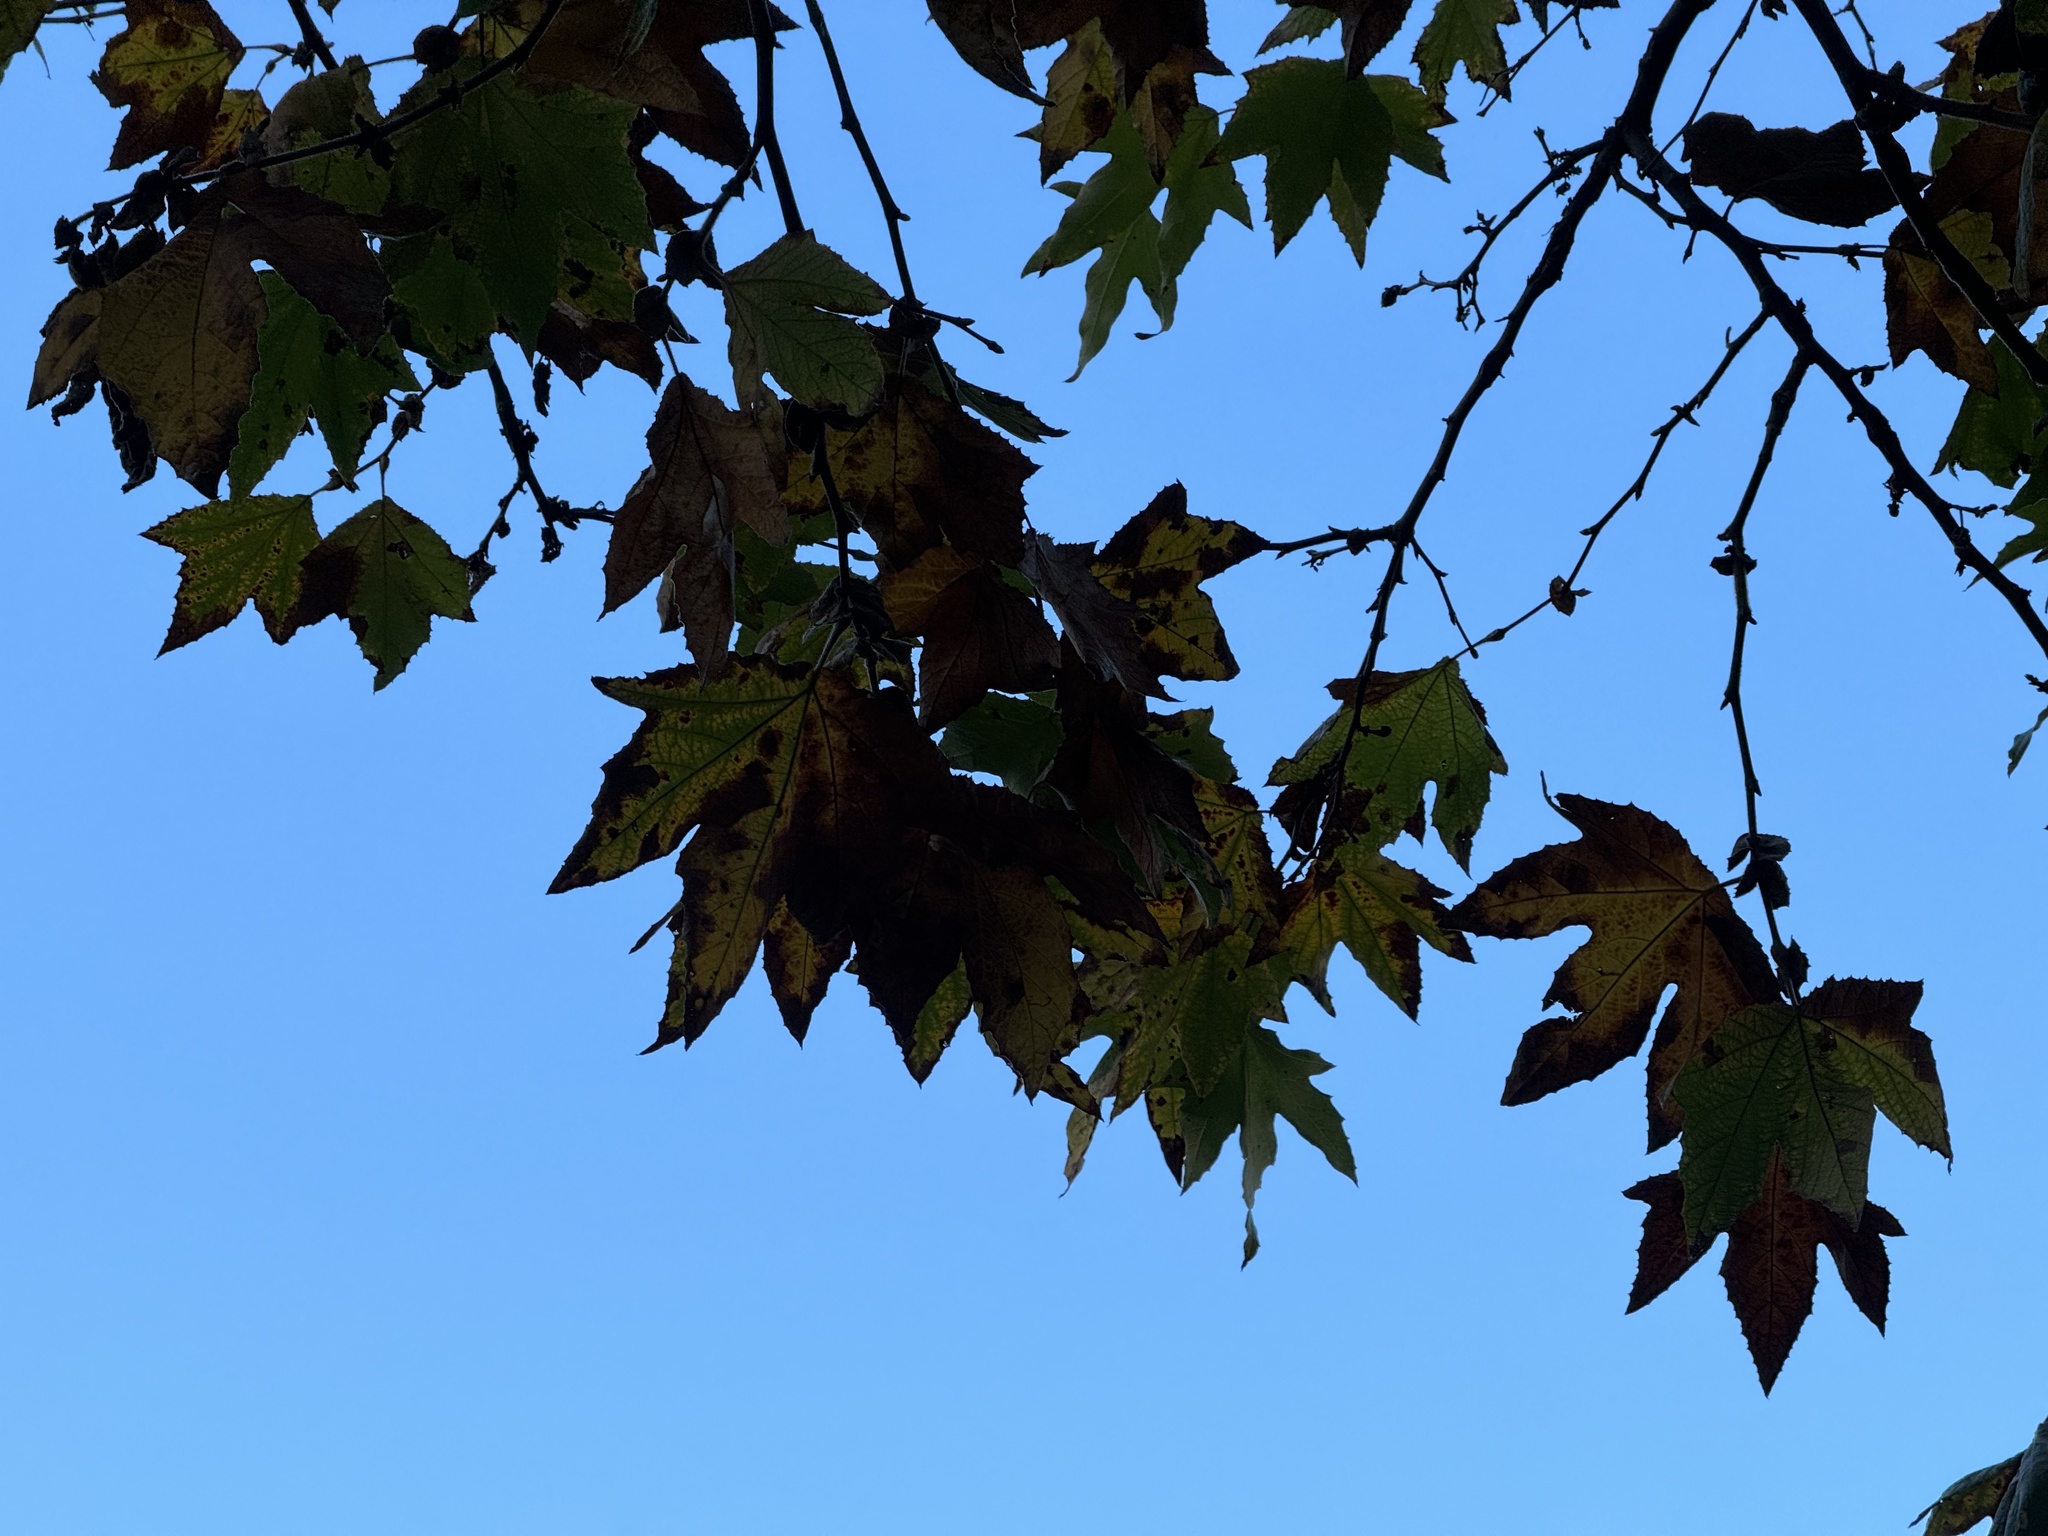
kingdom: Plantae
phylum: Tracheophyta
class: Magnoliopsida
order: Proteales
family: Platanaceae
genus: Platanus
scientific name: Platanus racemosa
